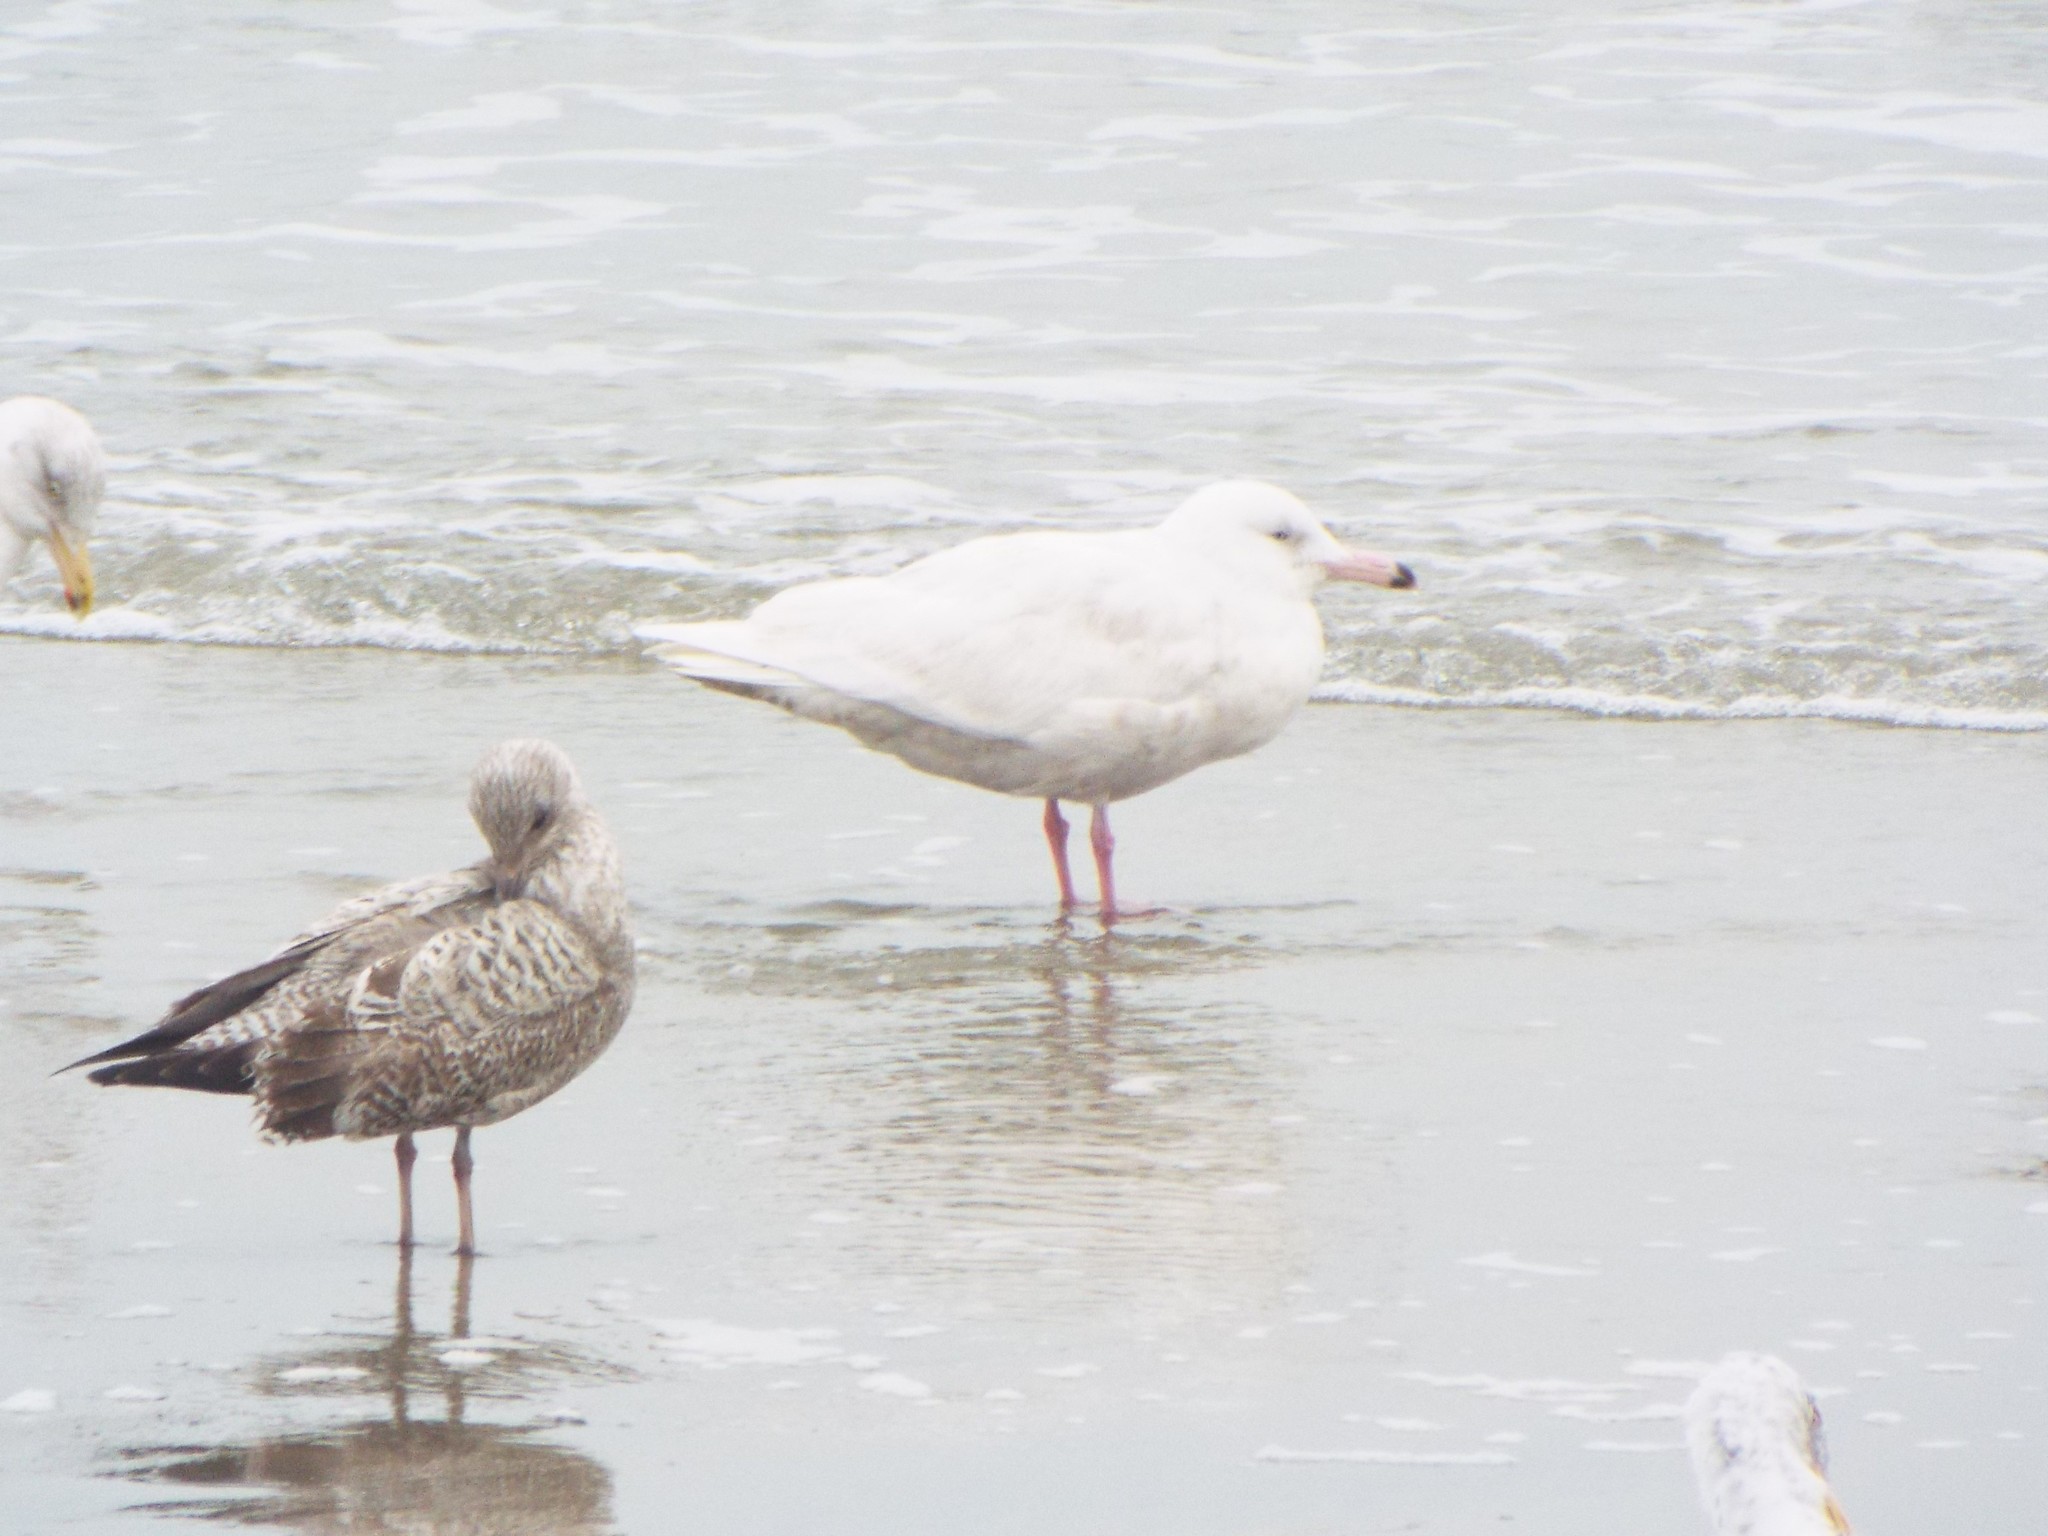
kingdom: Animalia
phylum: Chordata
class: Aves
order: Charadriiformes
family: Laridae
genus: Larus
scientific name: Larus hyperboreus
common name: Glaucous gull
